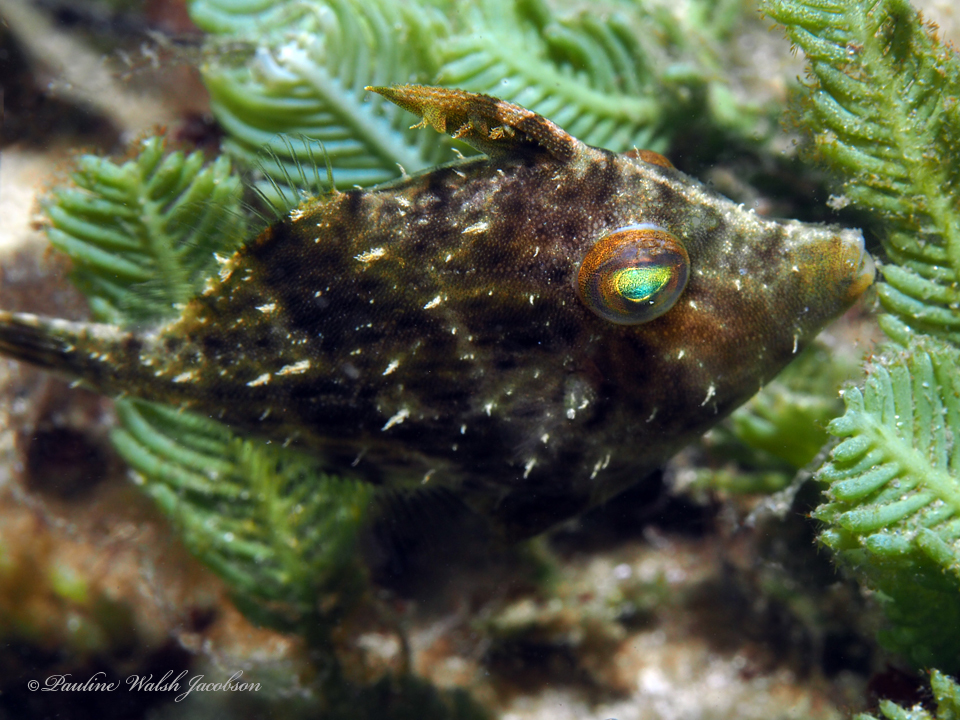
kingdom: Animalia
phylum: Chordata
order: Tetraodontiformes
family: Monacanthidae
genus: Stephanolepis
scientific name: Stephanolepis hispidus
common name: Planehead filefish
